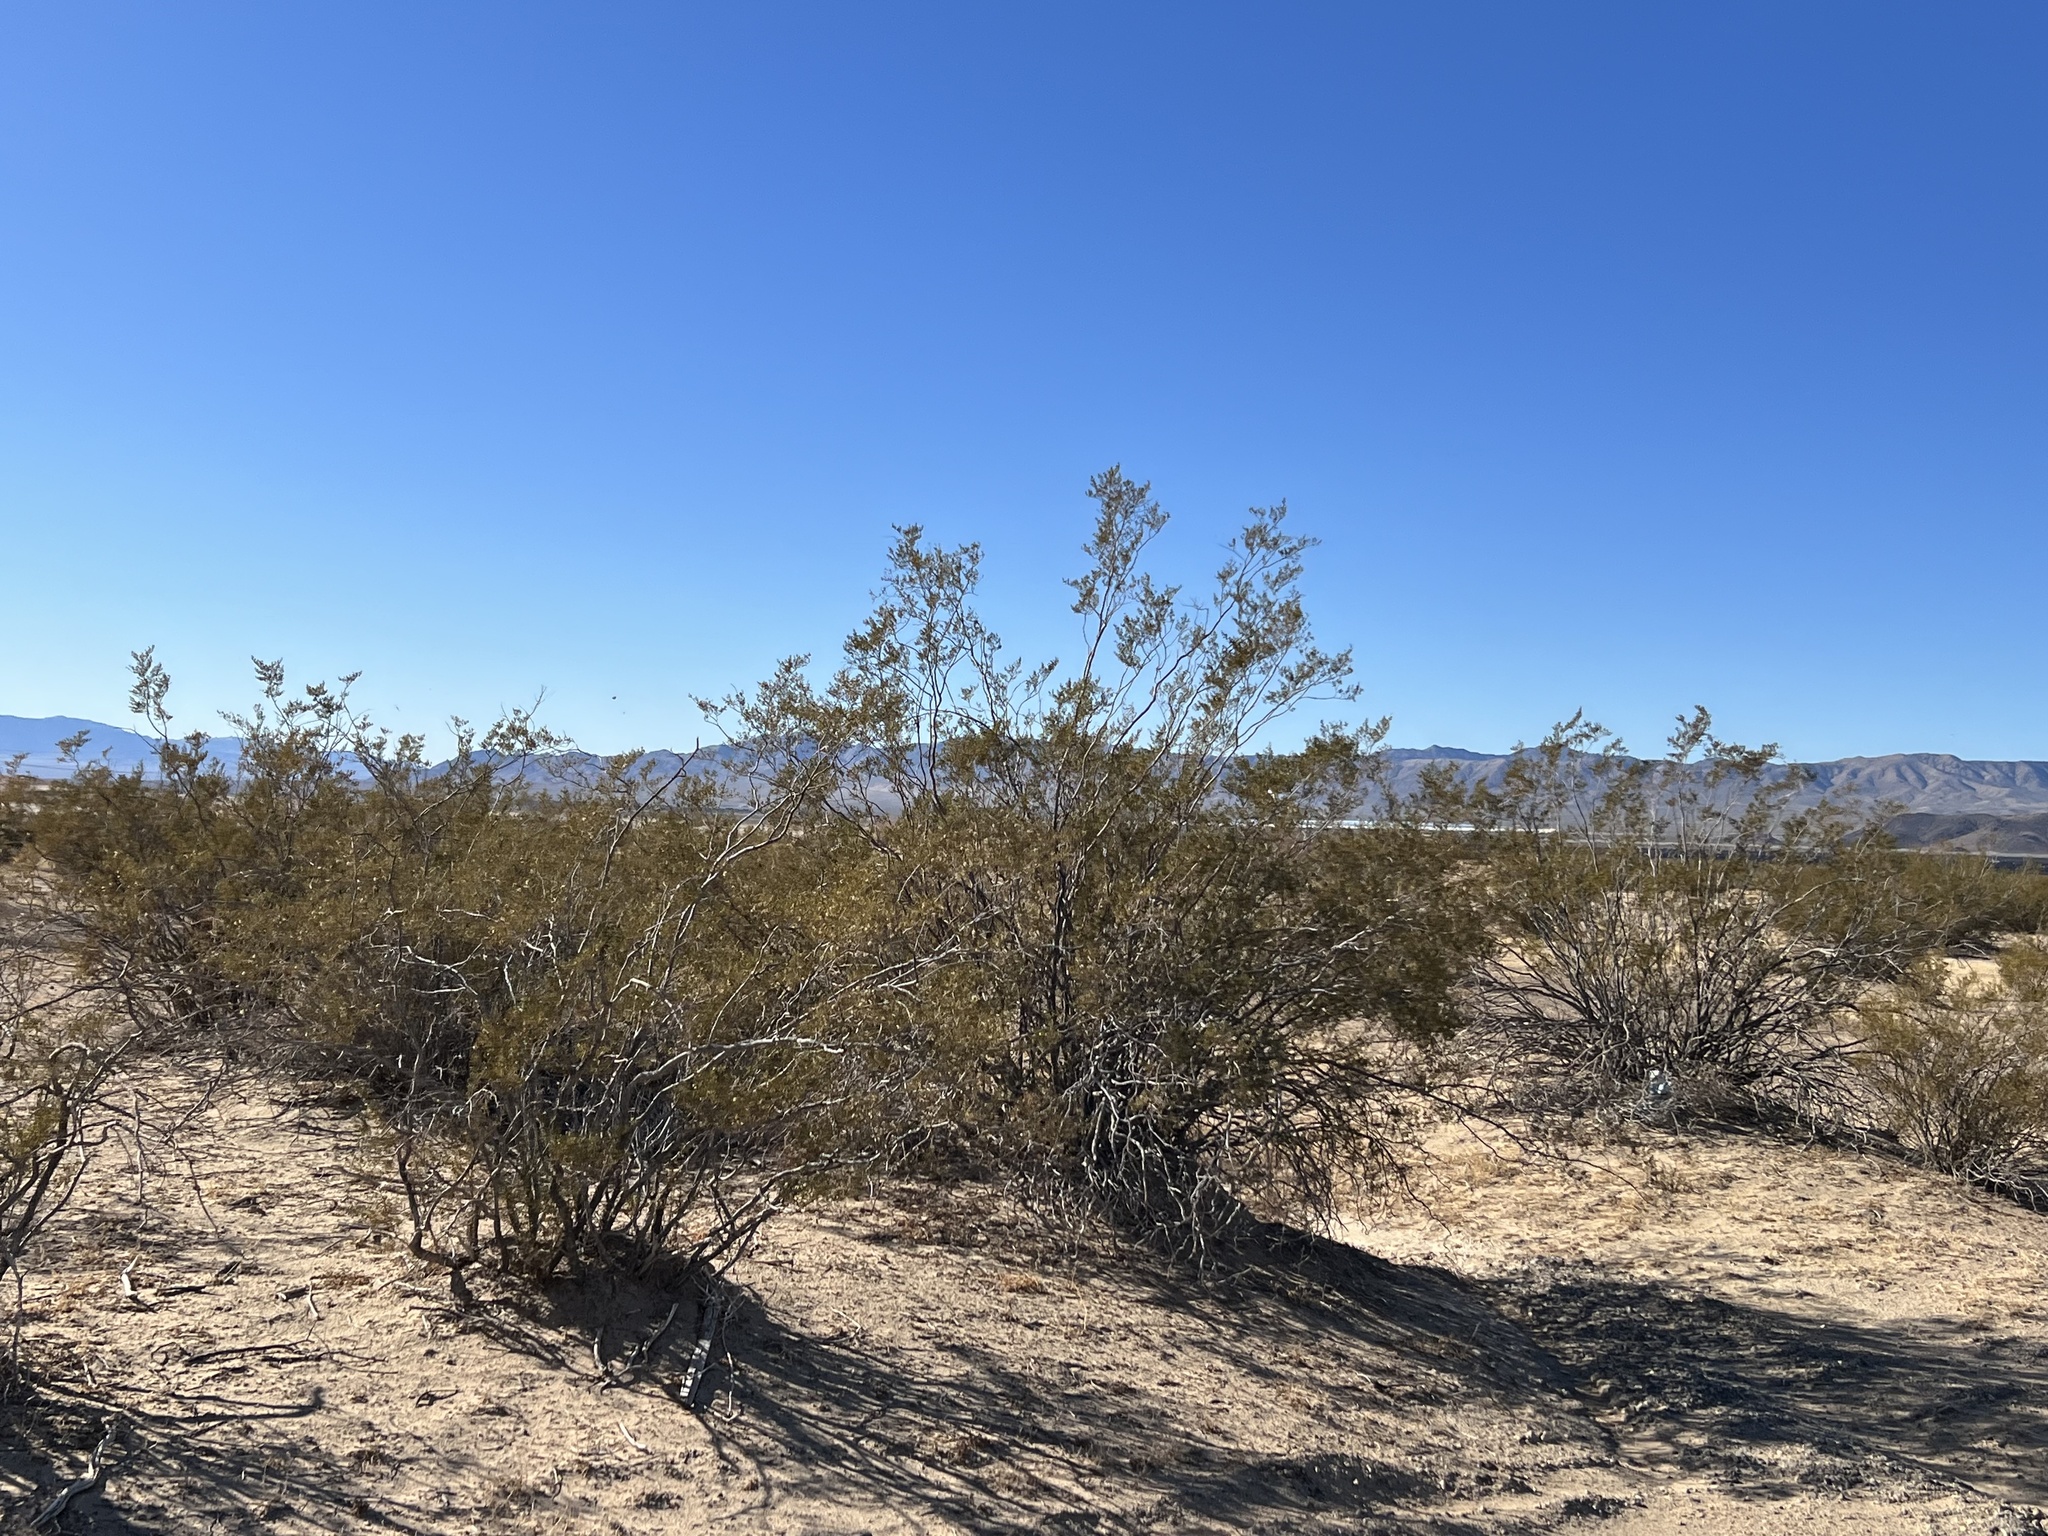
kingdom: Plantae
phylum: Tracheophyta
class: Magnoliopsida
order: Zygophyllales
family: Zygophyllaceae
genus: Larrea
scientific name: Larrea tridentata
